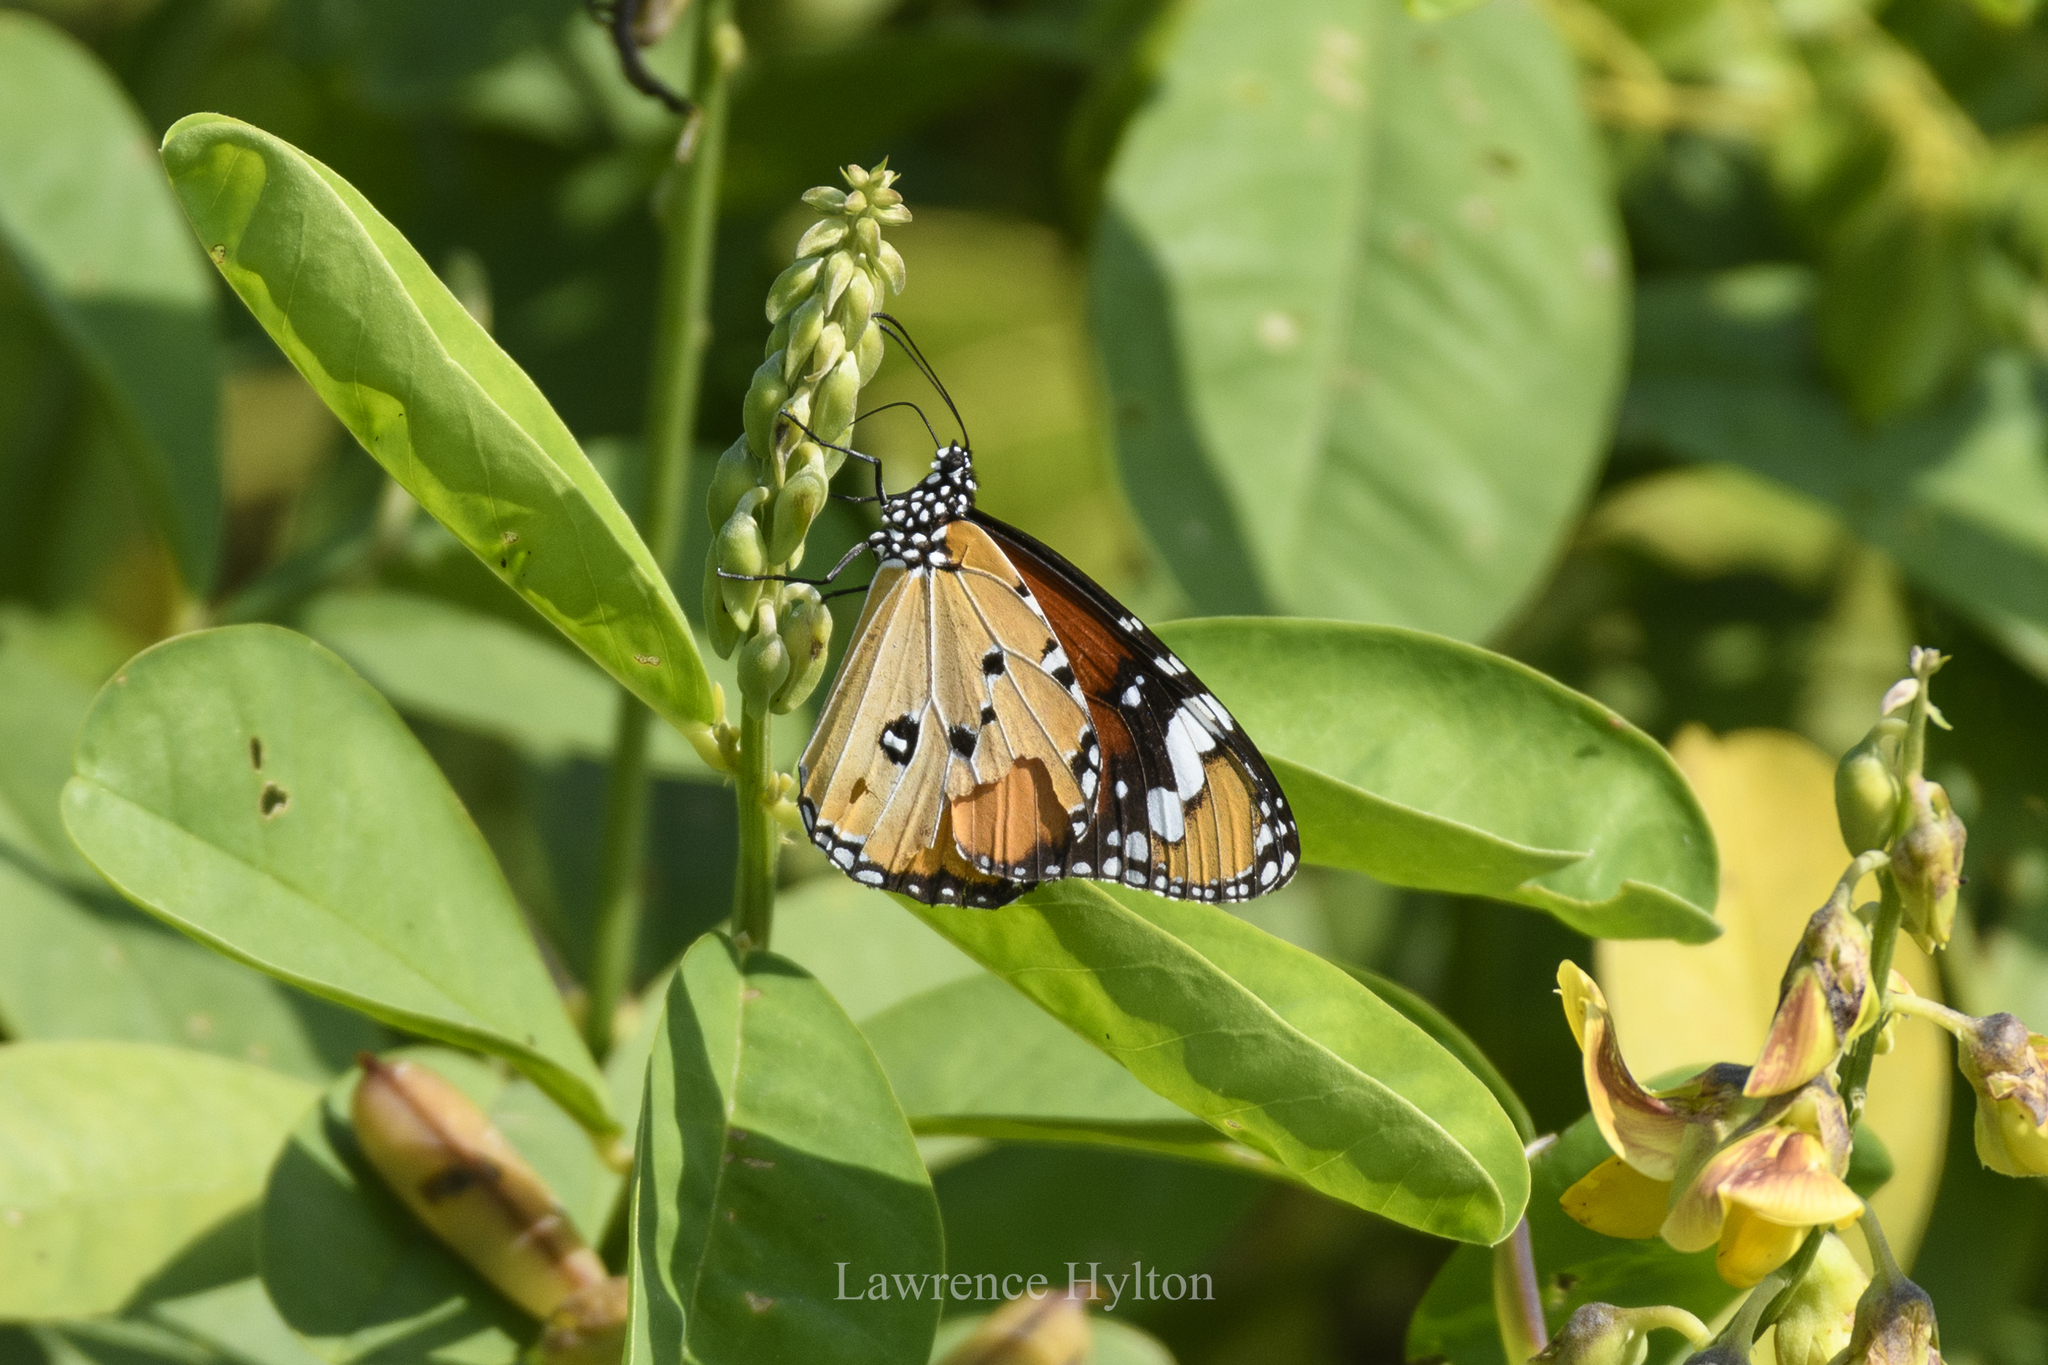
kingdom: Animalia
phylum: Arthropoda
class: Insecta
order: Lepidoptera
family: Nymphalidae
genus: Danaus
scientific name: Danaus chrysippus
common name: Plain tiger
